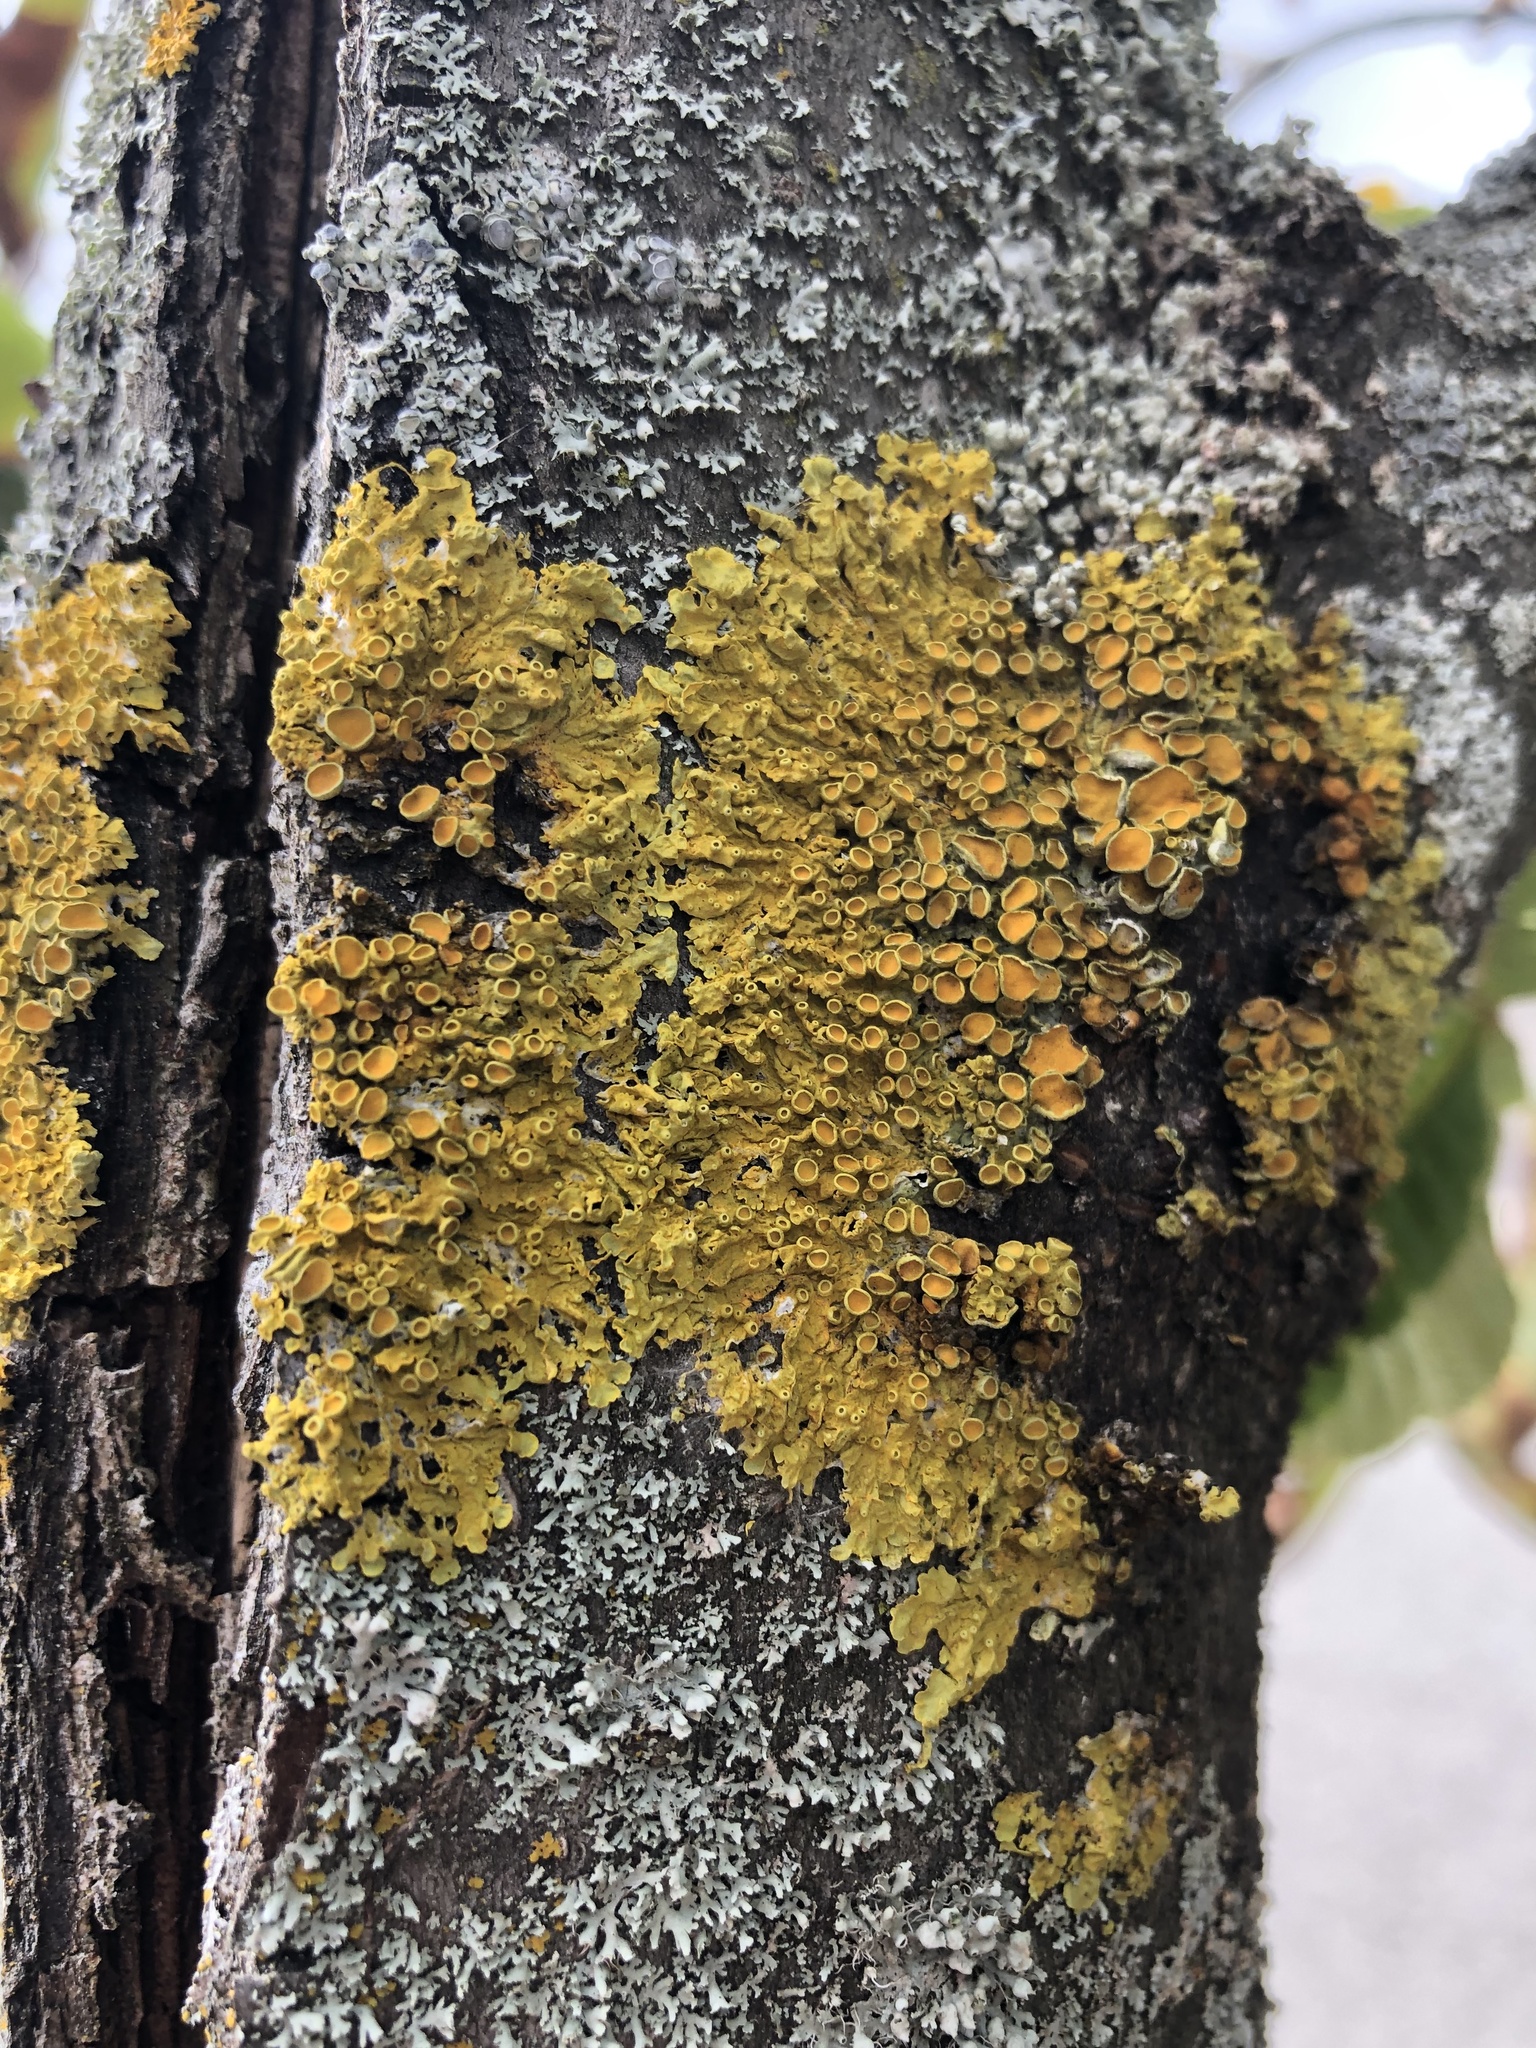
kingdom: Fungi
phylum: Ascomycota
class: Lecanoromycetes
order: Teloschistales
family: Teloschistaceae
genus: Xanthoria
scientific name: Xanthoria parietina
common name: Common orange lichen
